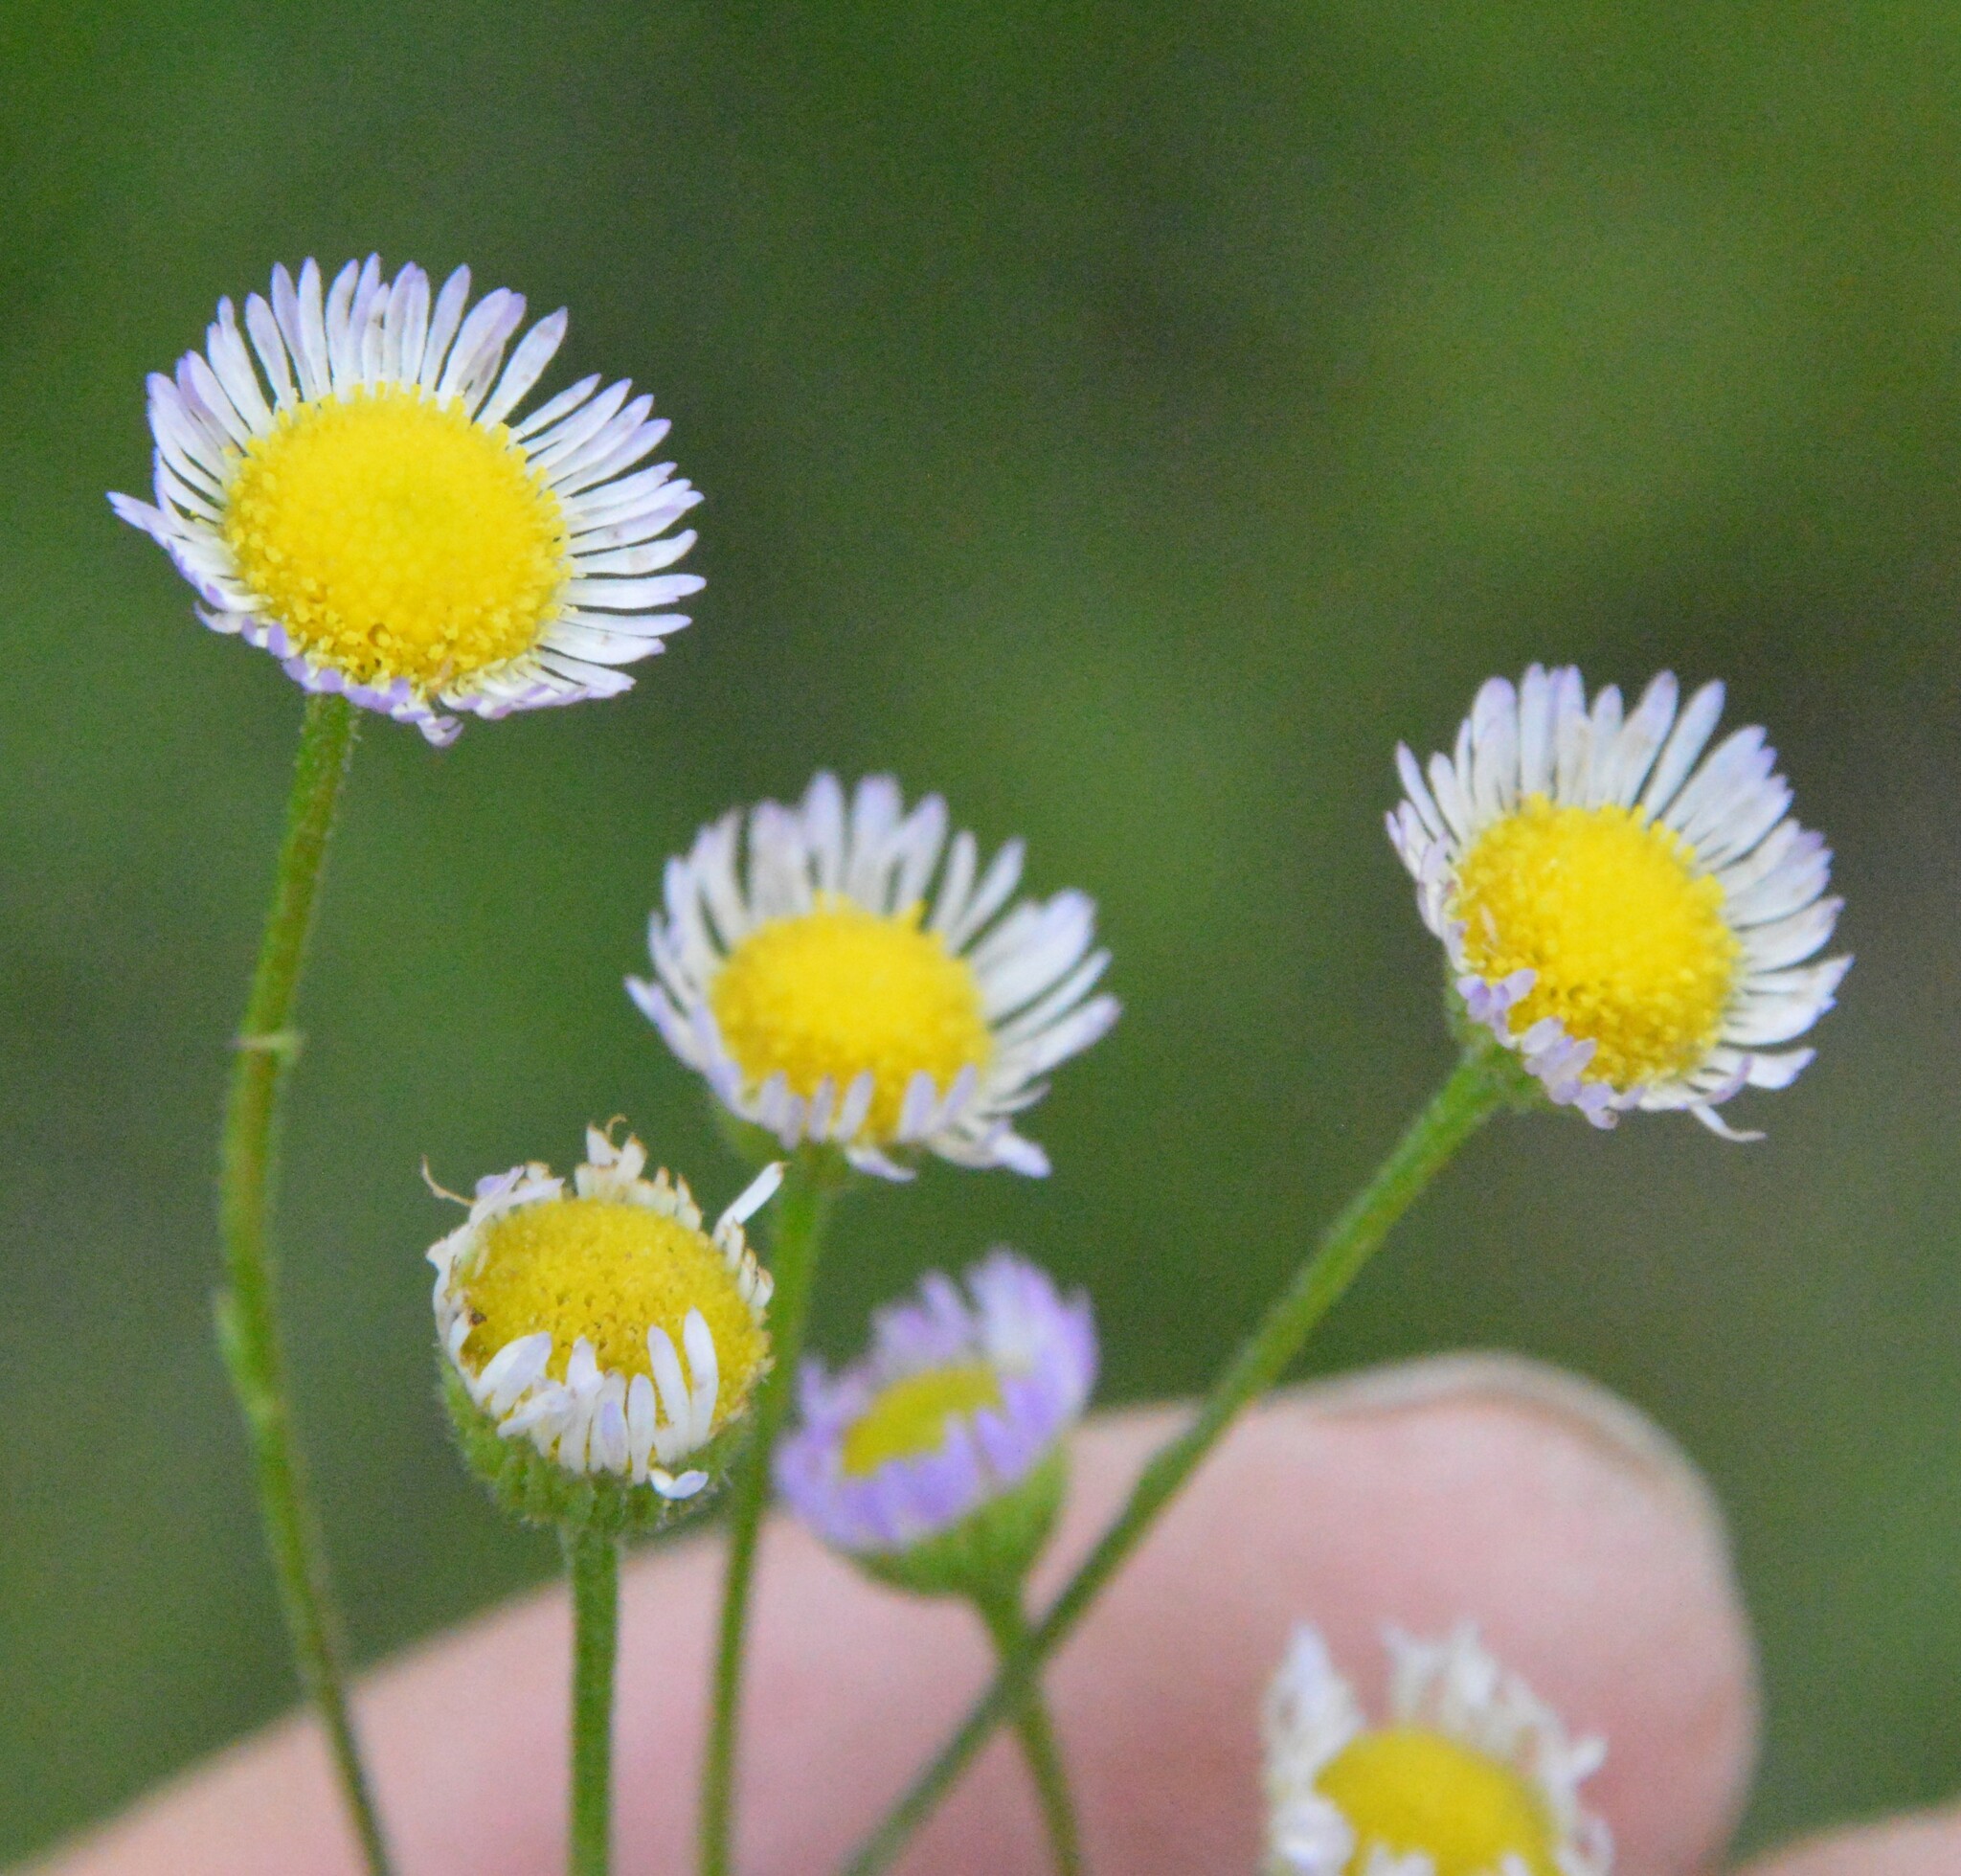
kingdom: Plantae
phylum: Tracheophyta
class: Magnoliopsida
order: Asterales
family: Asteraceae
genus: Erigeron
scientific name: Erigeron tenuis
